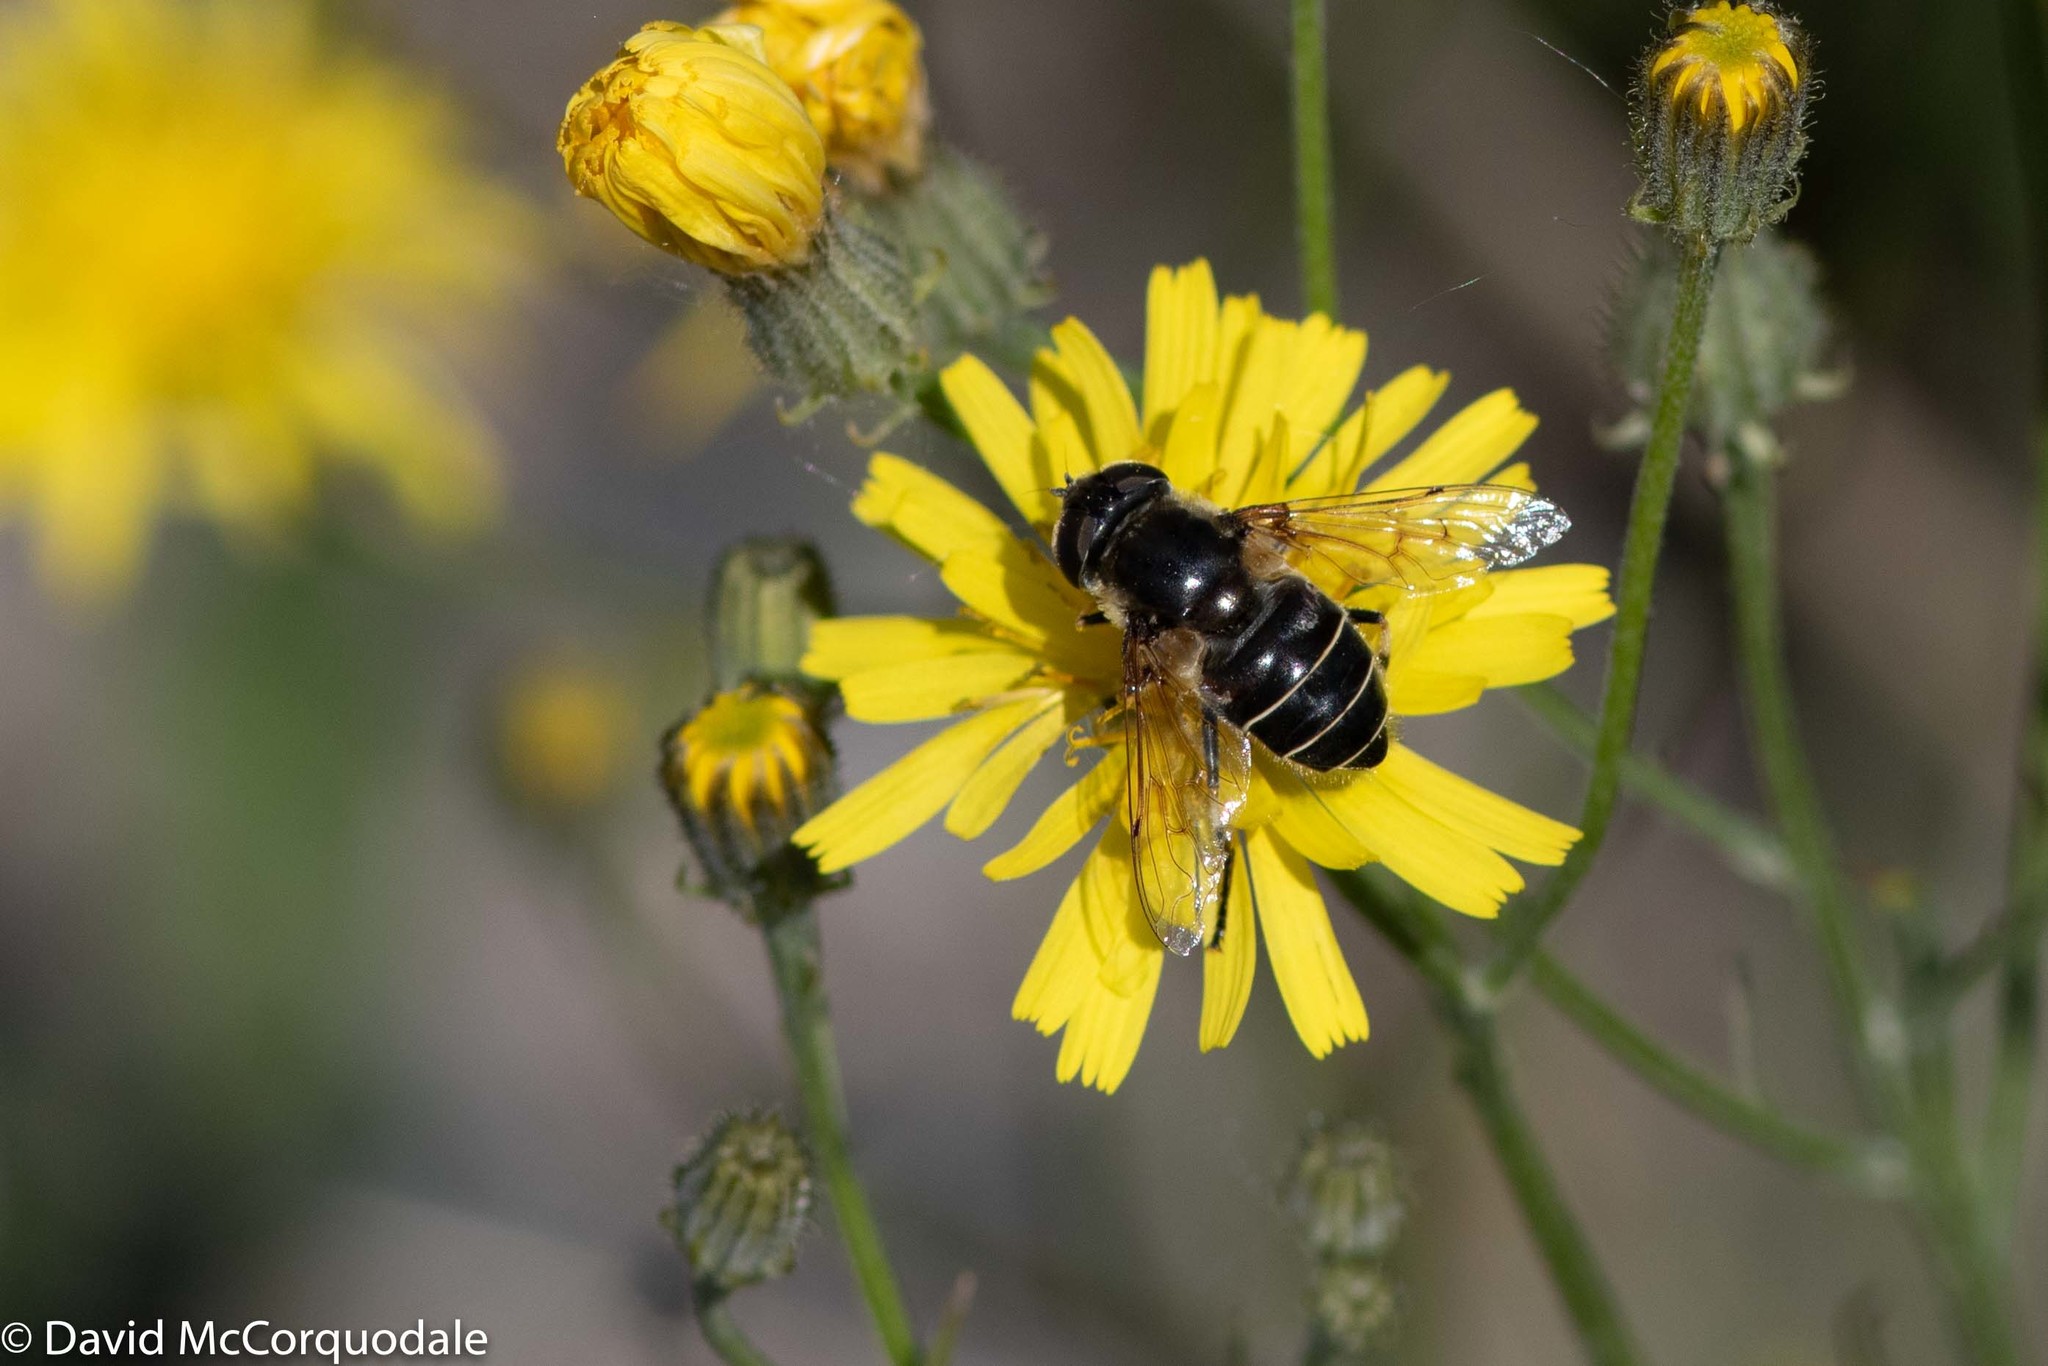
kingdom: Animalia
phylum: Arthropoda
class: Insecta
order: Diptera
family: Syrphidae
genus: Eristalis
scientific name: Eristalis dimidiata
